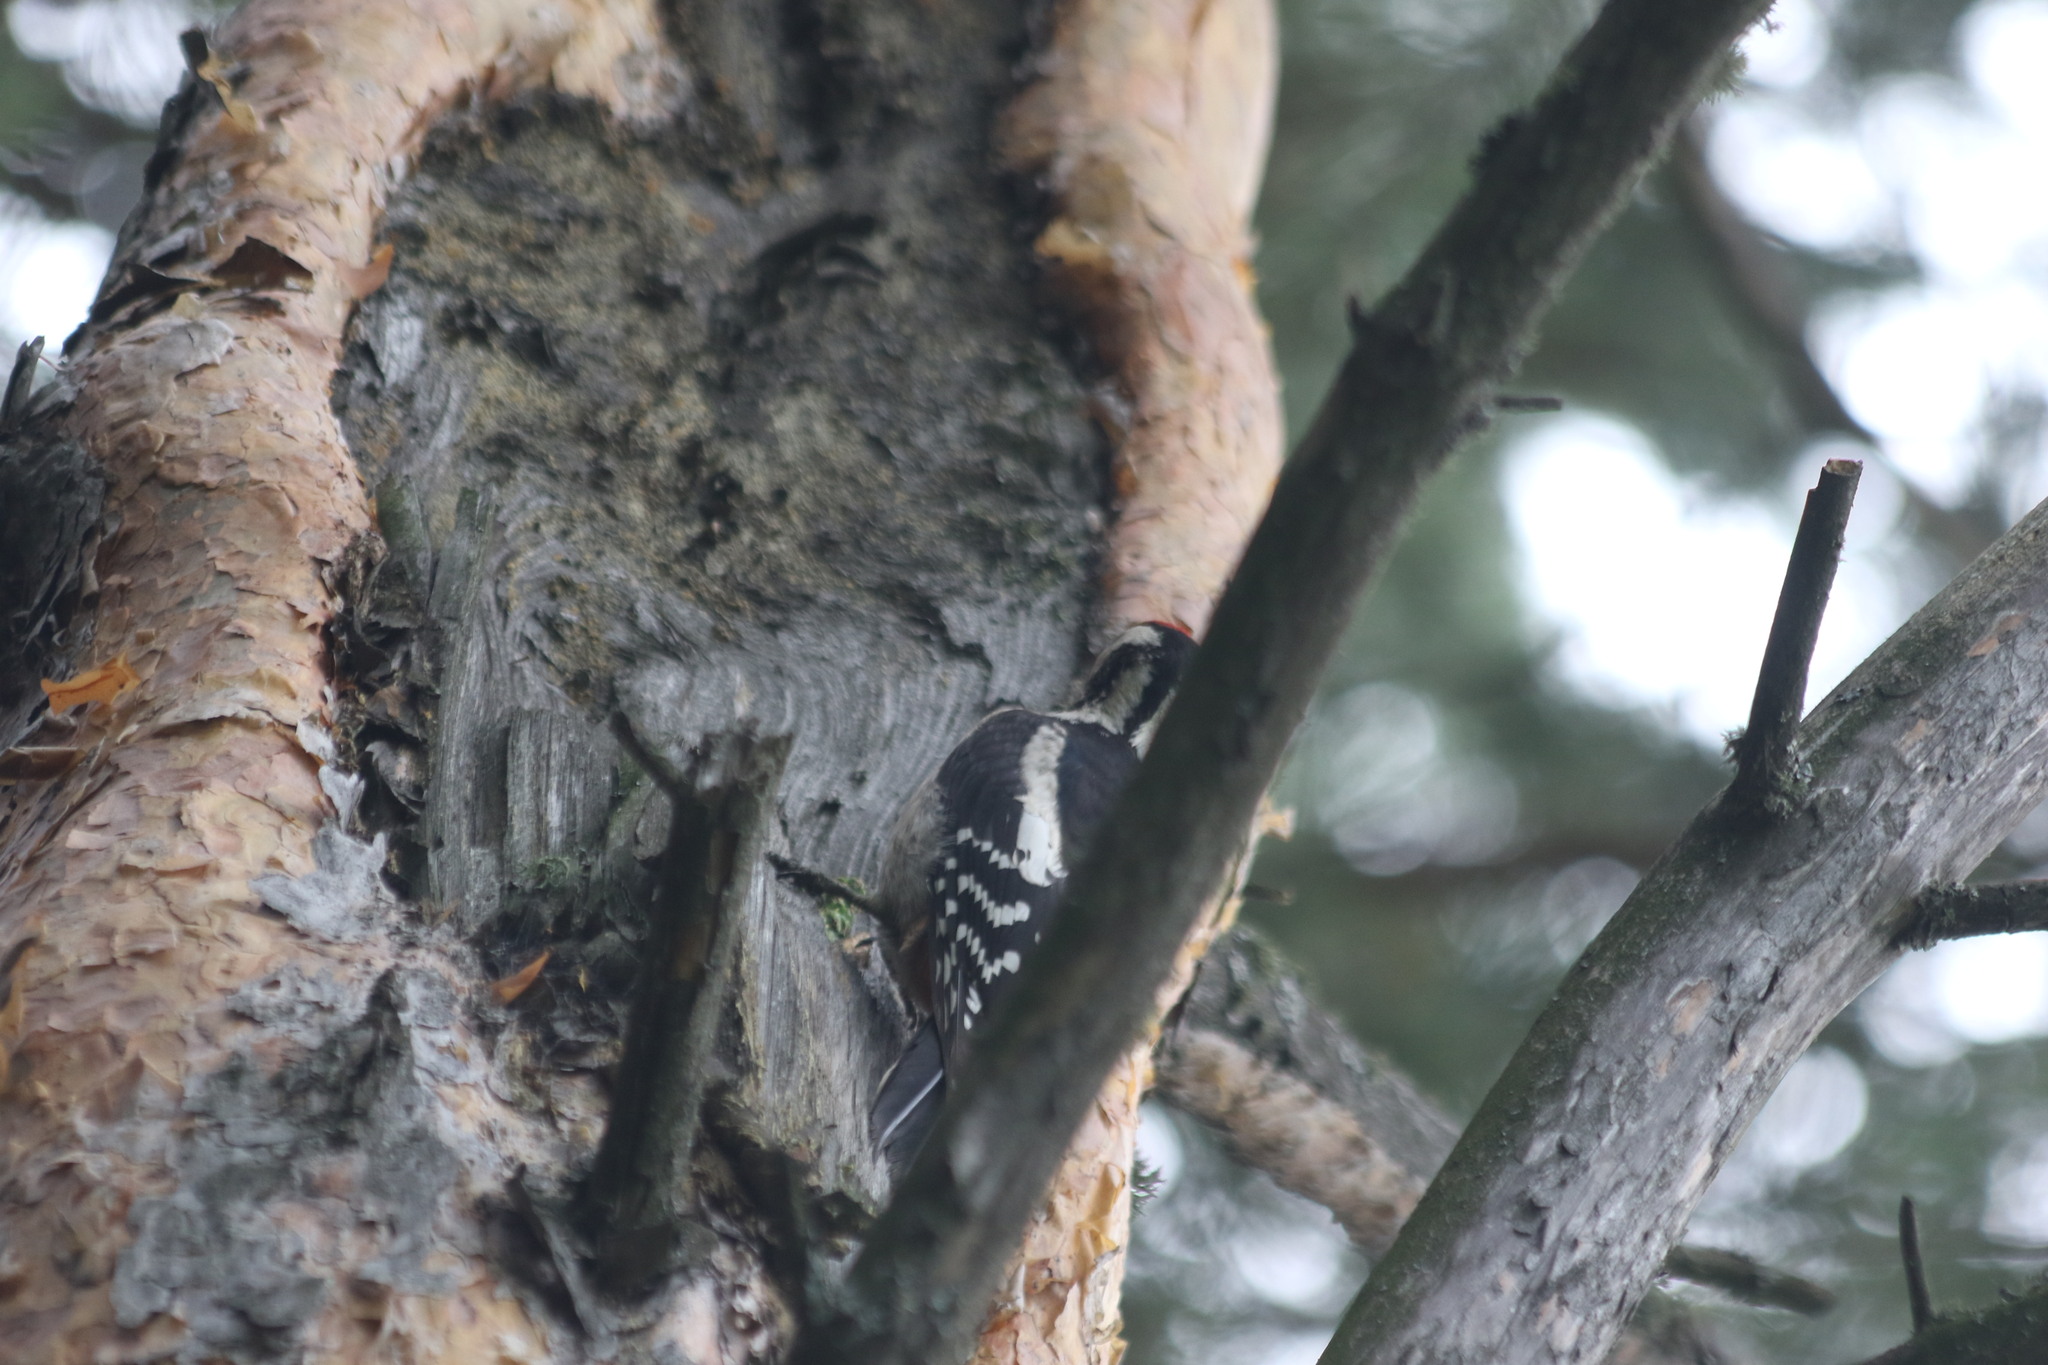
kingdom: Animalia
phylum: Chordata
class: Aves
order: Piciformes
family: Picidae
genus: Dendrocopos
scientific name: Dendrocopos major
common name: Great spotted woodpecker
